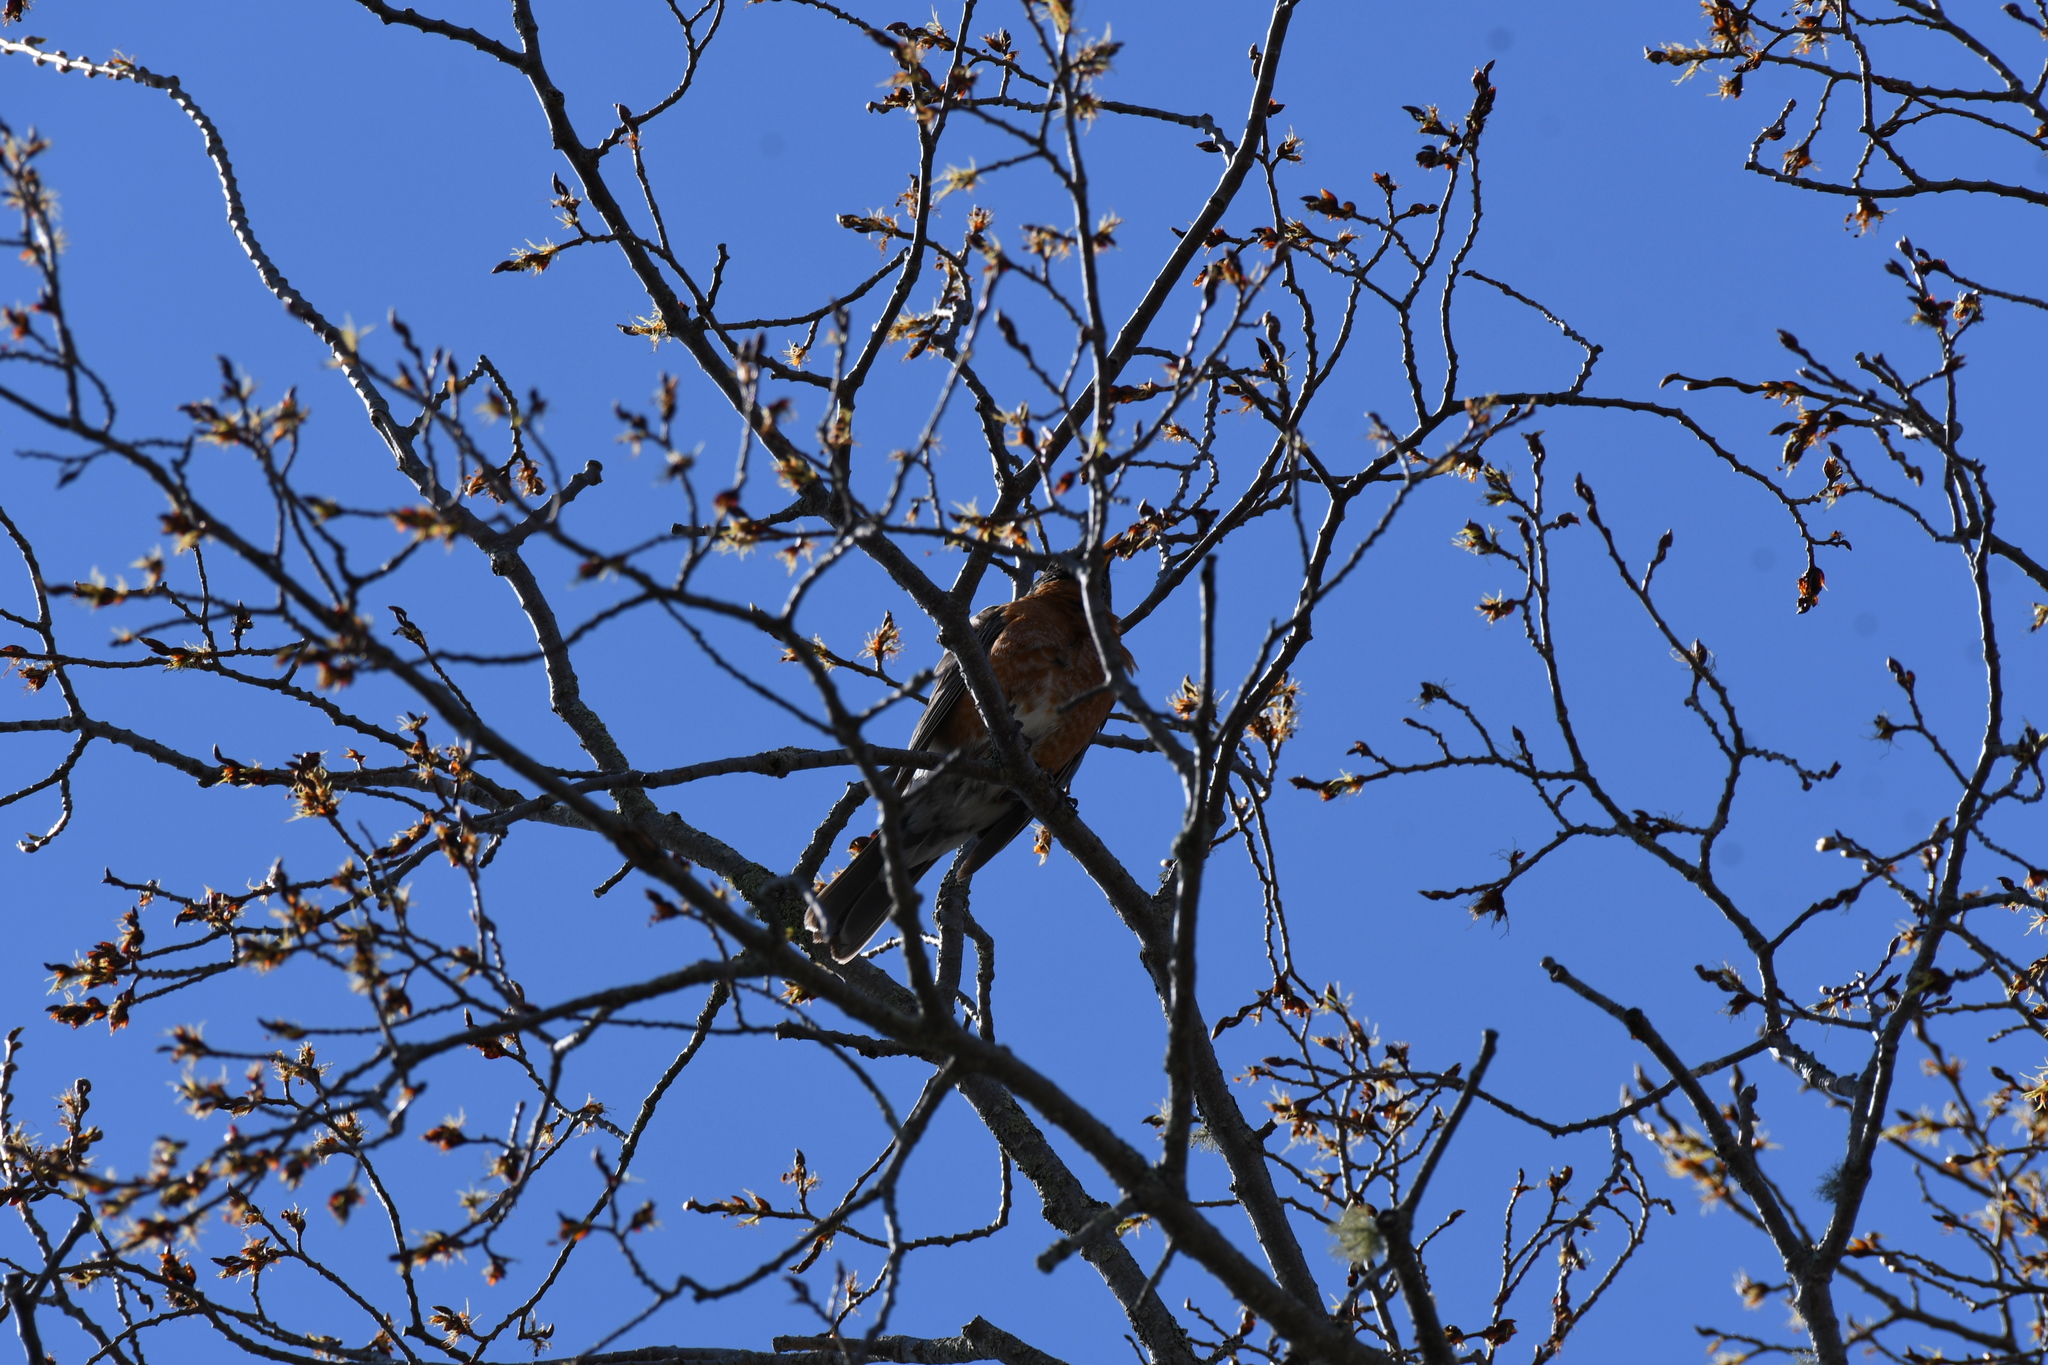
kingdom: Animalia
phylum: Chordata
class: Aves
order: Passeriformes
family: Turdidae
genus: Turdus
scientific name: Turdus migratorius
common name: American robin
